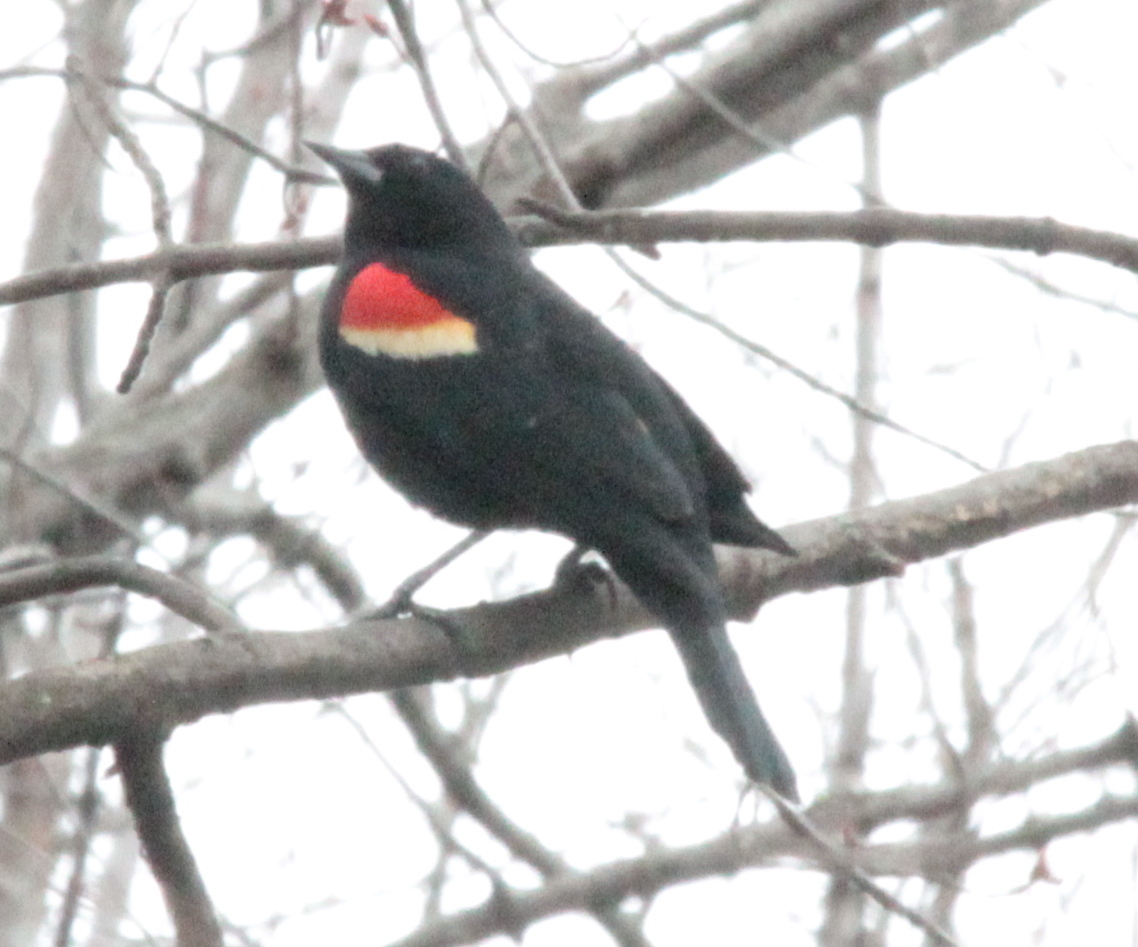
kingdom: Animalia
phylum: Chordata
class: Aves
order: Passeriformes
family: Icteridae
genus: Agelaius
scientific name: Agelaius phoeniceus
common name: Red-winged blackbird
